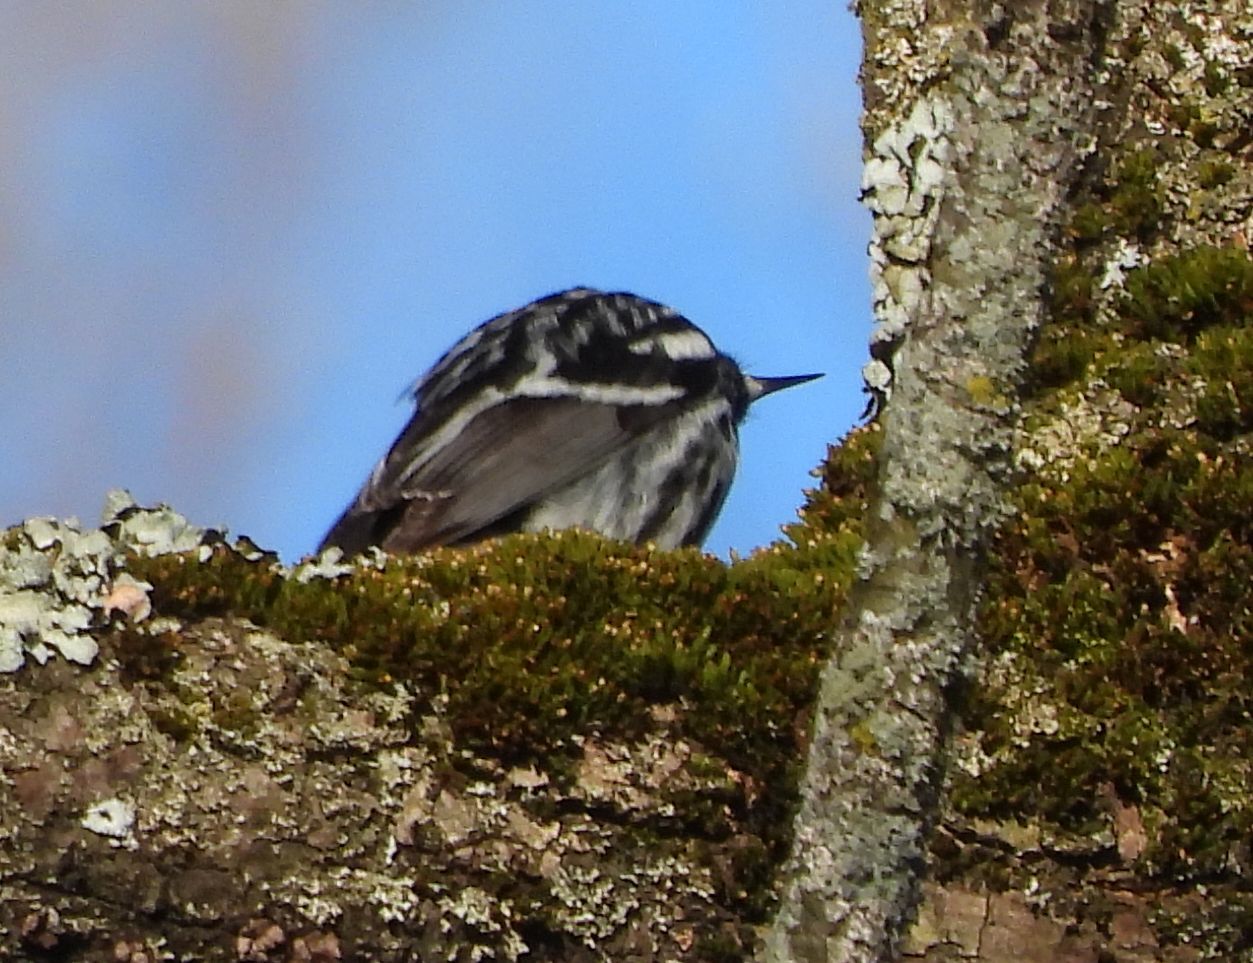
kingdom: Animalia
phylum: Chordata
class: Aves
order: Passeriformes
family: Parulidae
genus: Mniotilta
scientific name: Mniotilta varia
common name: Black-and-white warbler
